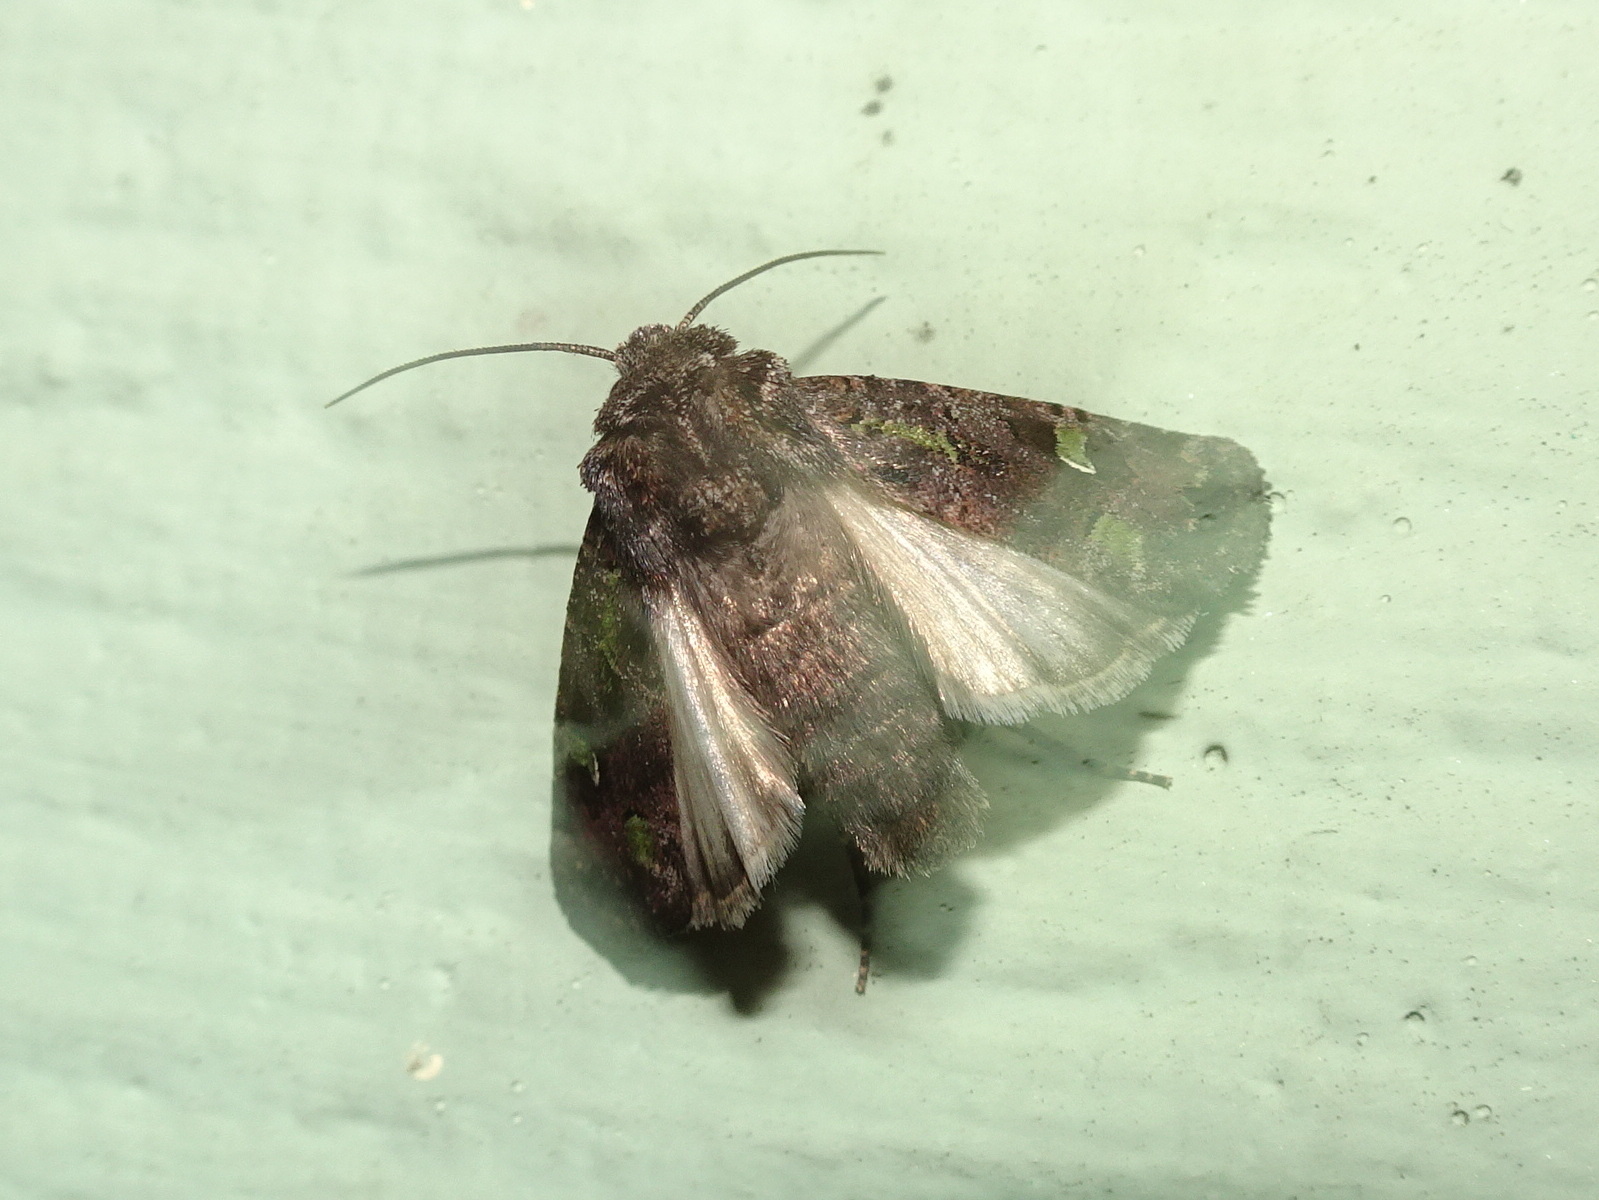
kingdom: Animalia
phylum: Arthropoda
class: Insecta
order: Lepidoptera
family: Noctuidae
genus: Lacinipolia
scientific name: Lacinipolia renigera
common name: Kidney-spotted minor
